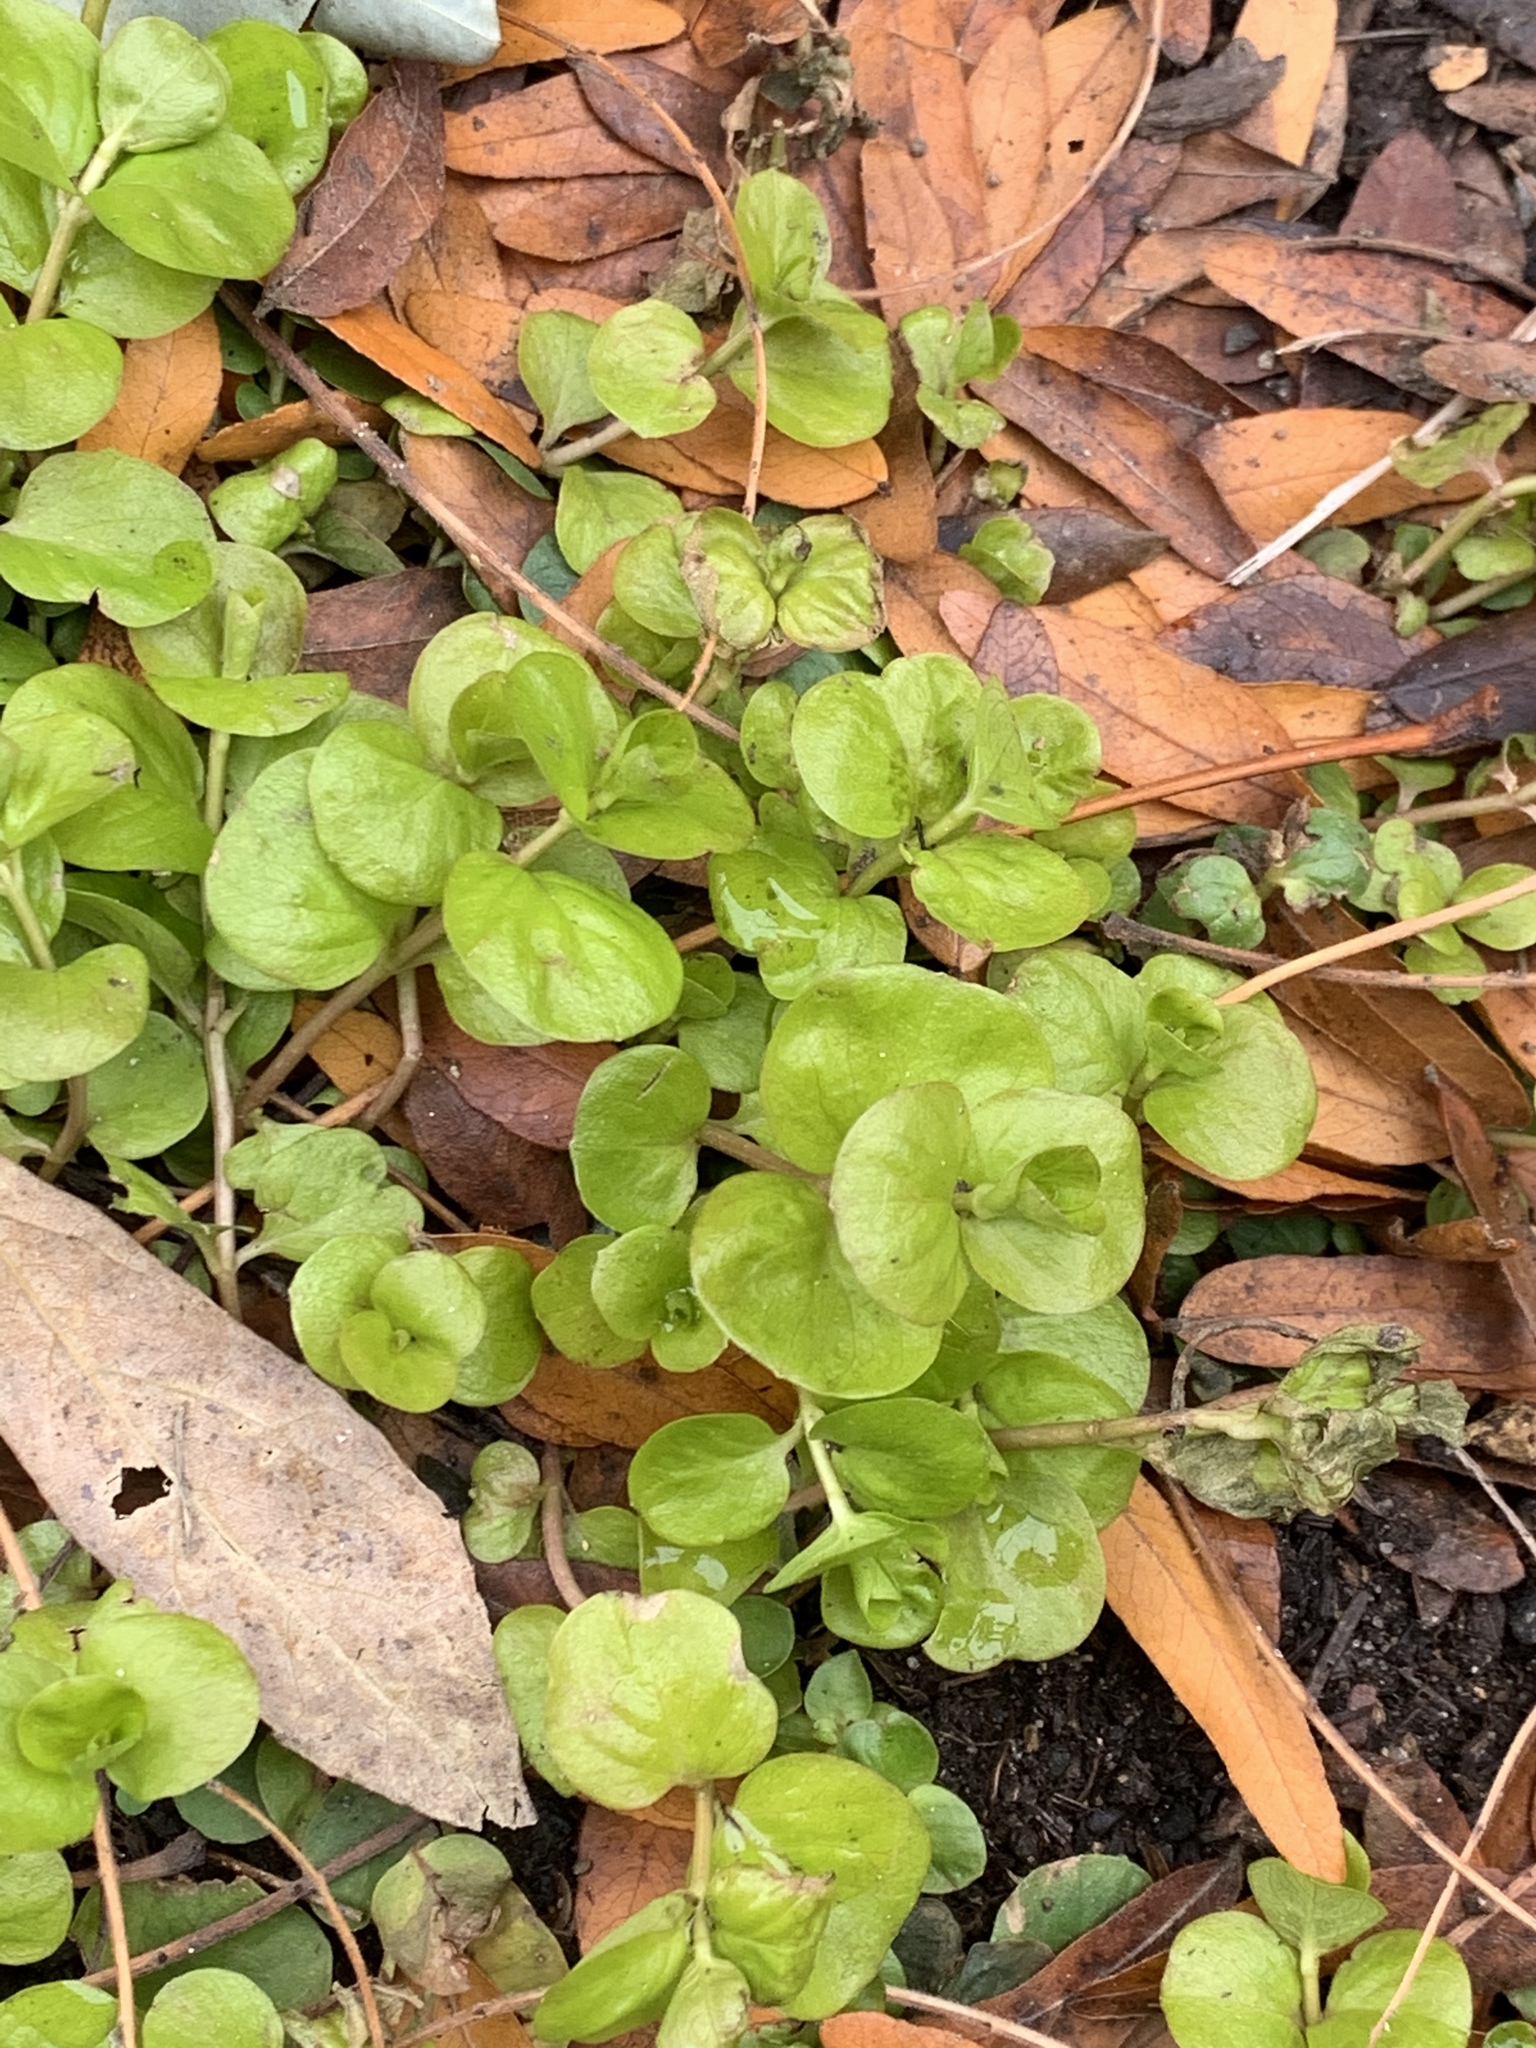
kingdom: Plantae
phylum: Tracheophyta
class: Magnoliopsida
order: Ericales
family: Primulaceae
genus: Lysimachia
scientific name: Lysimachia nummularia
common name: Moneywort
